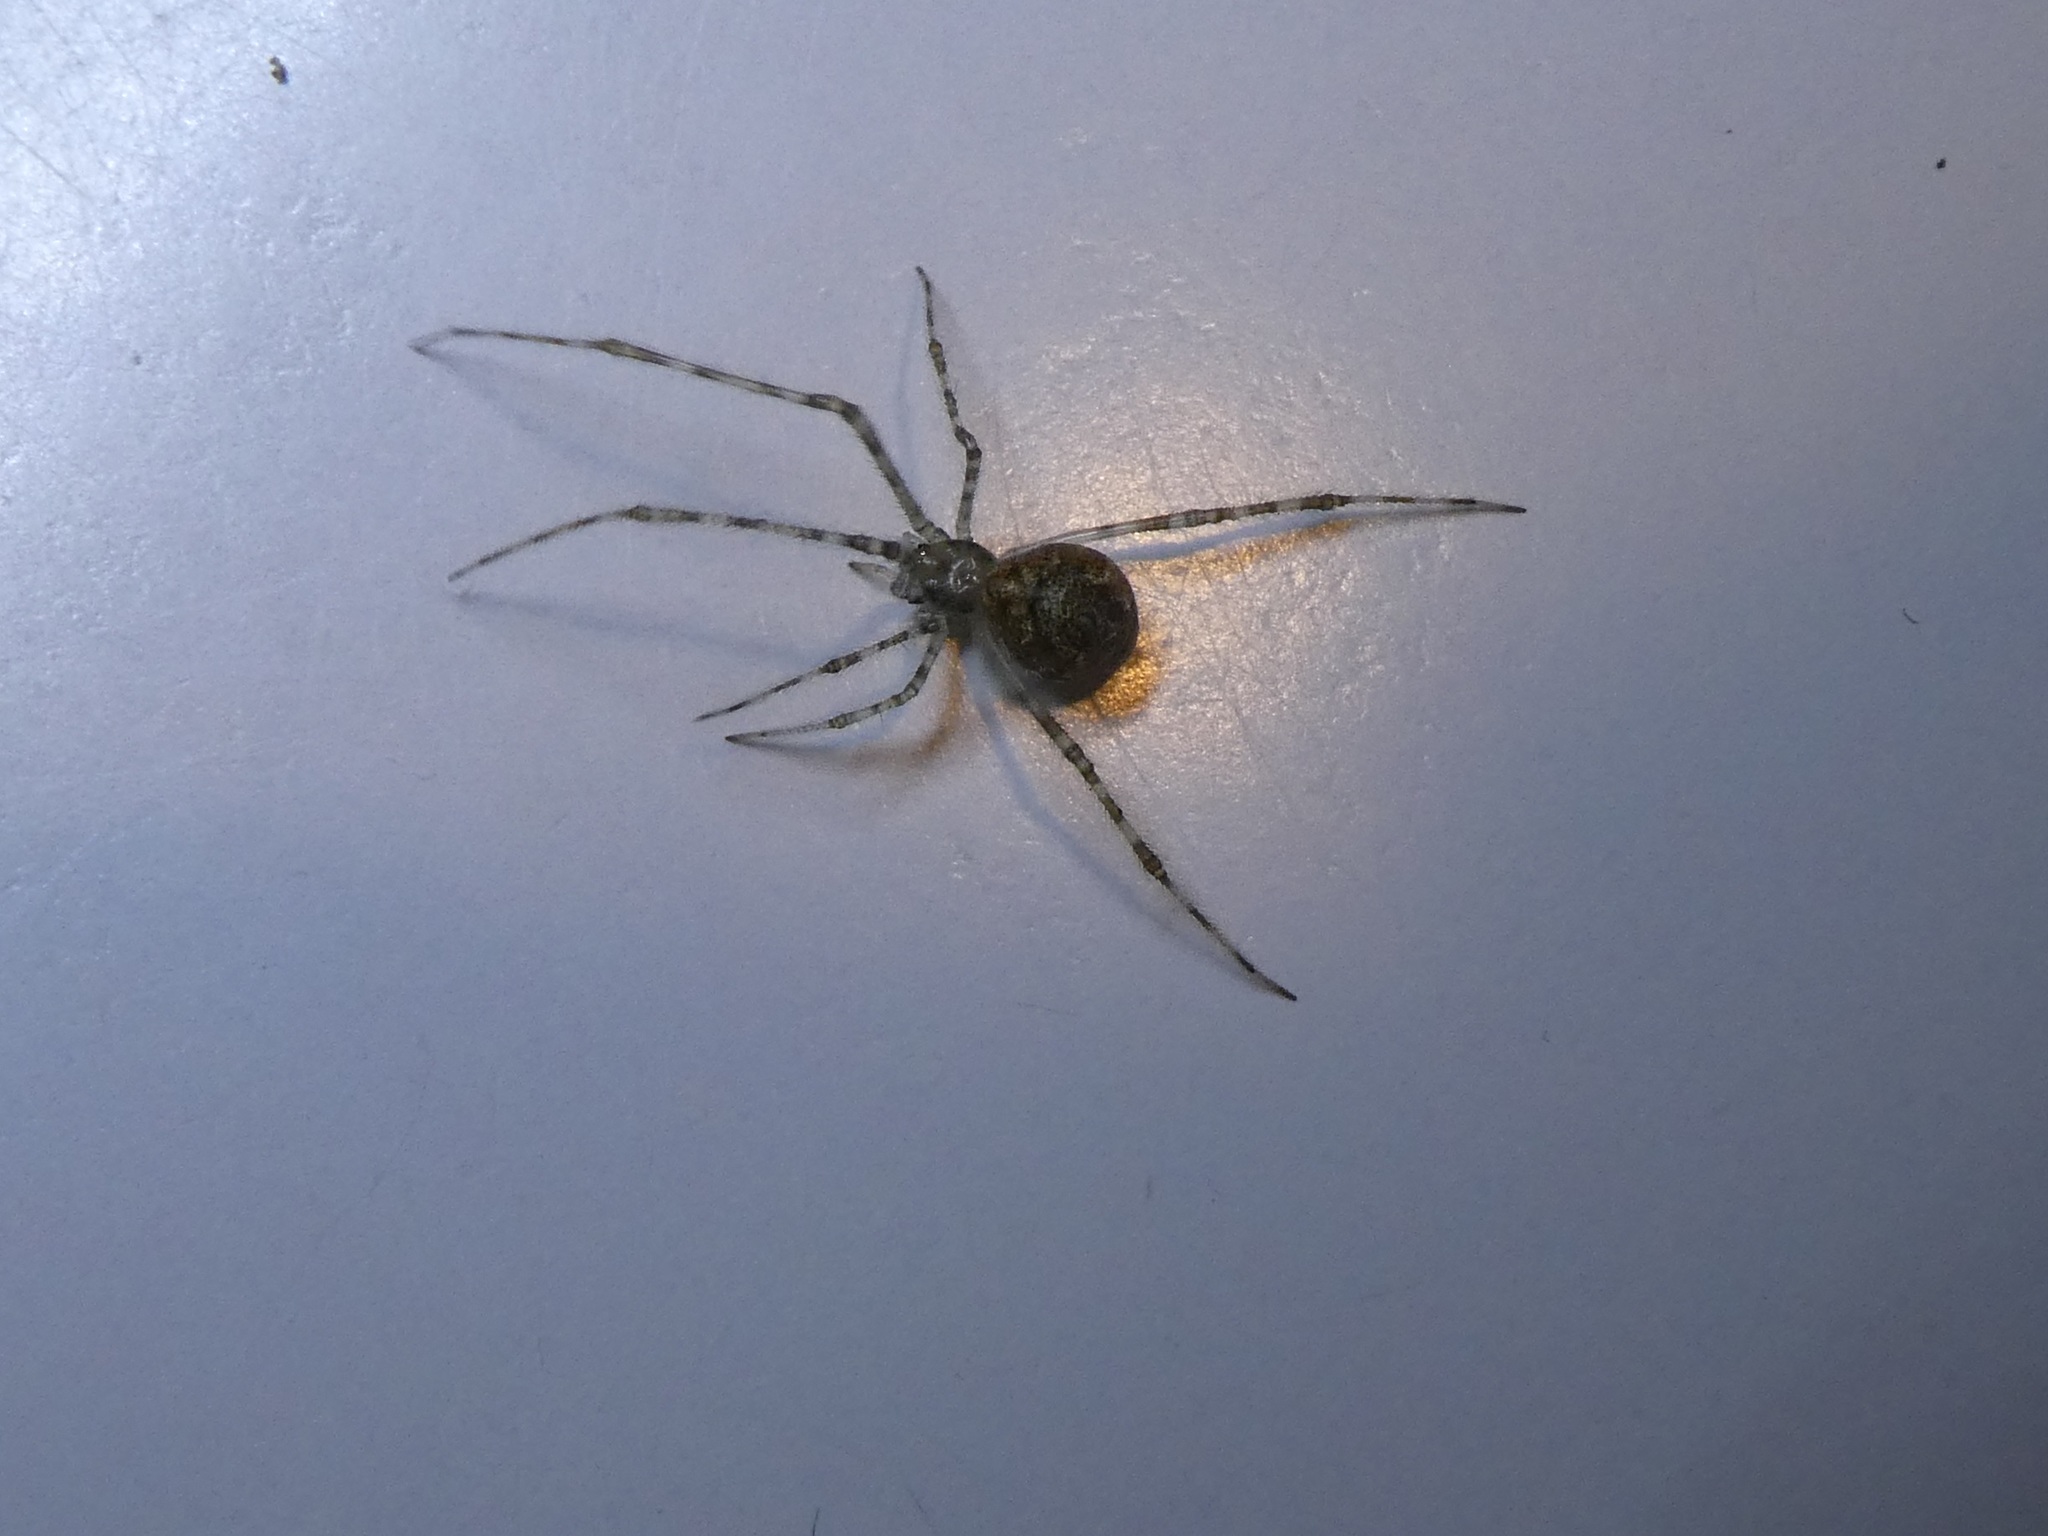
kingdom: Animalia
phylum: Arthropoda
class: Arachnida
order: Araneae
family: Theridiidae
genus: Cryptachaea
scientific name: Cryptachaea gigantipes
